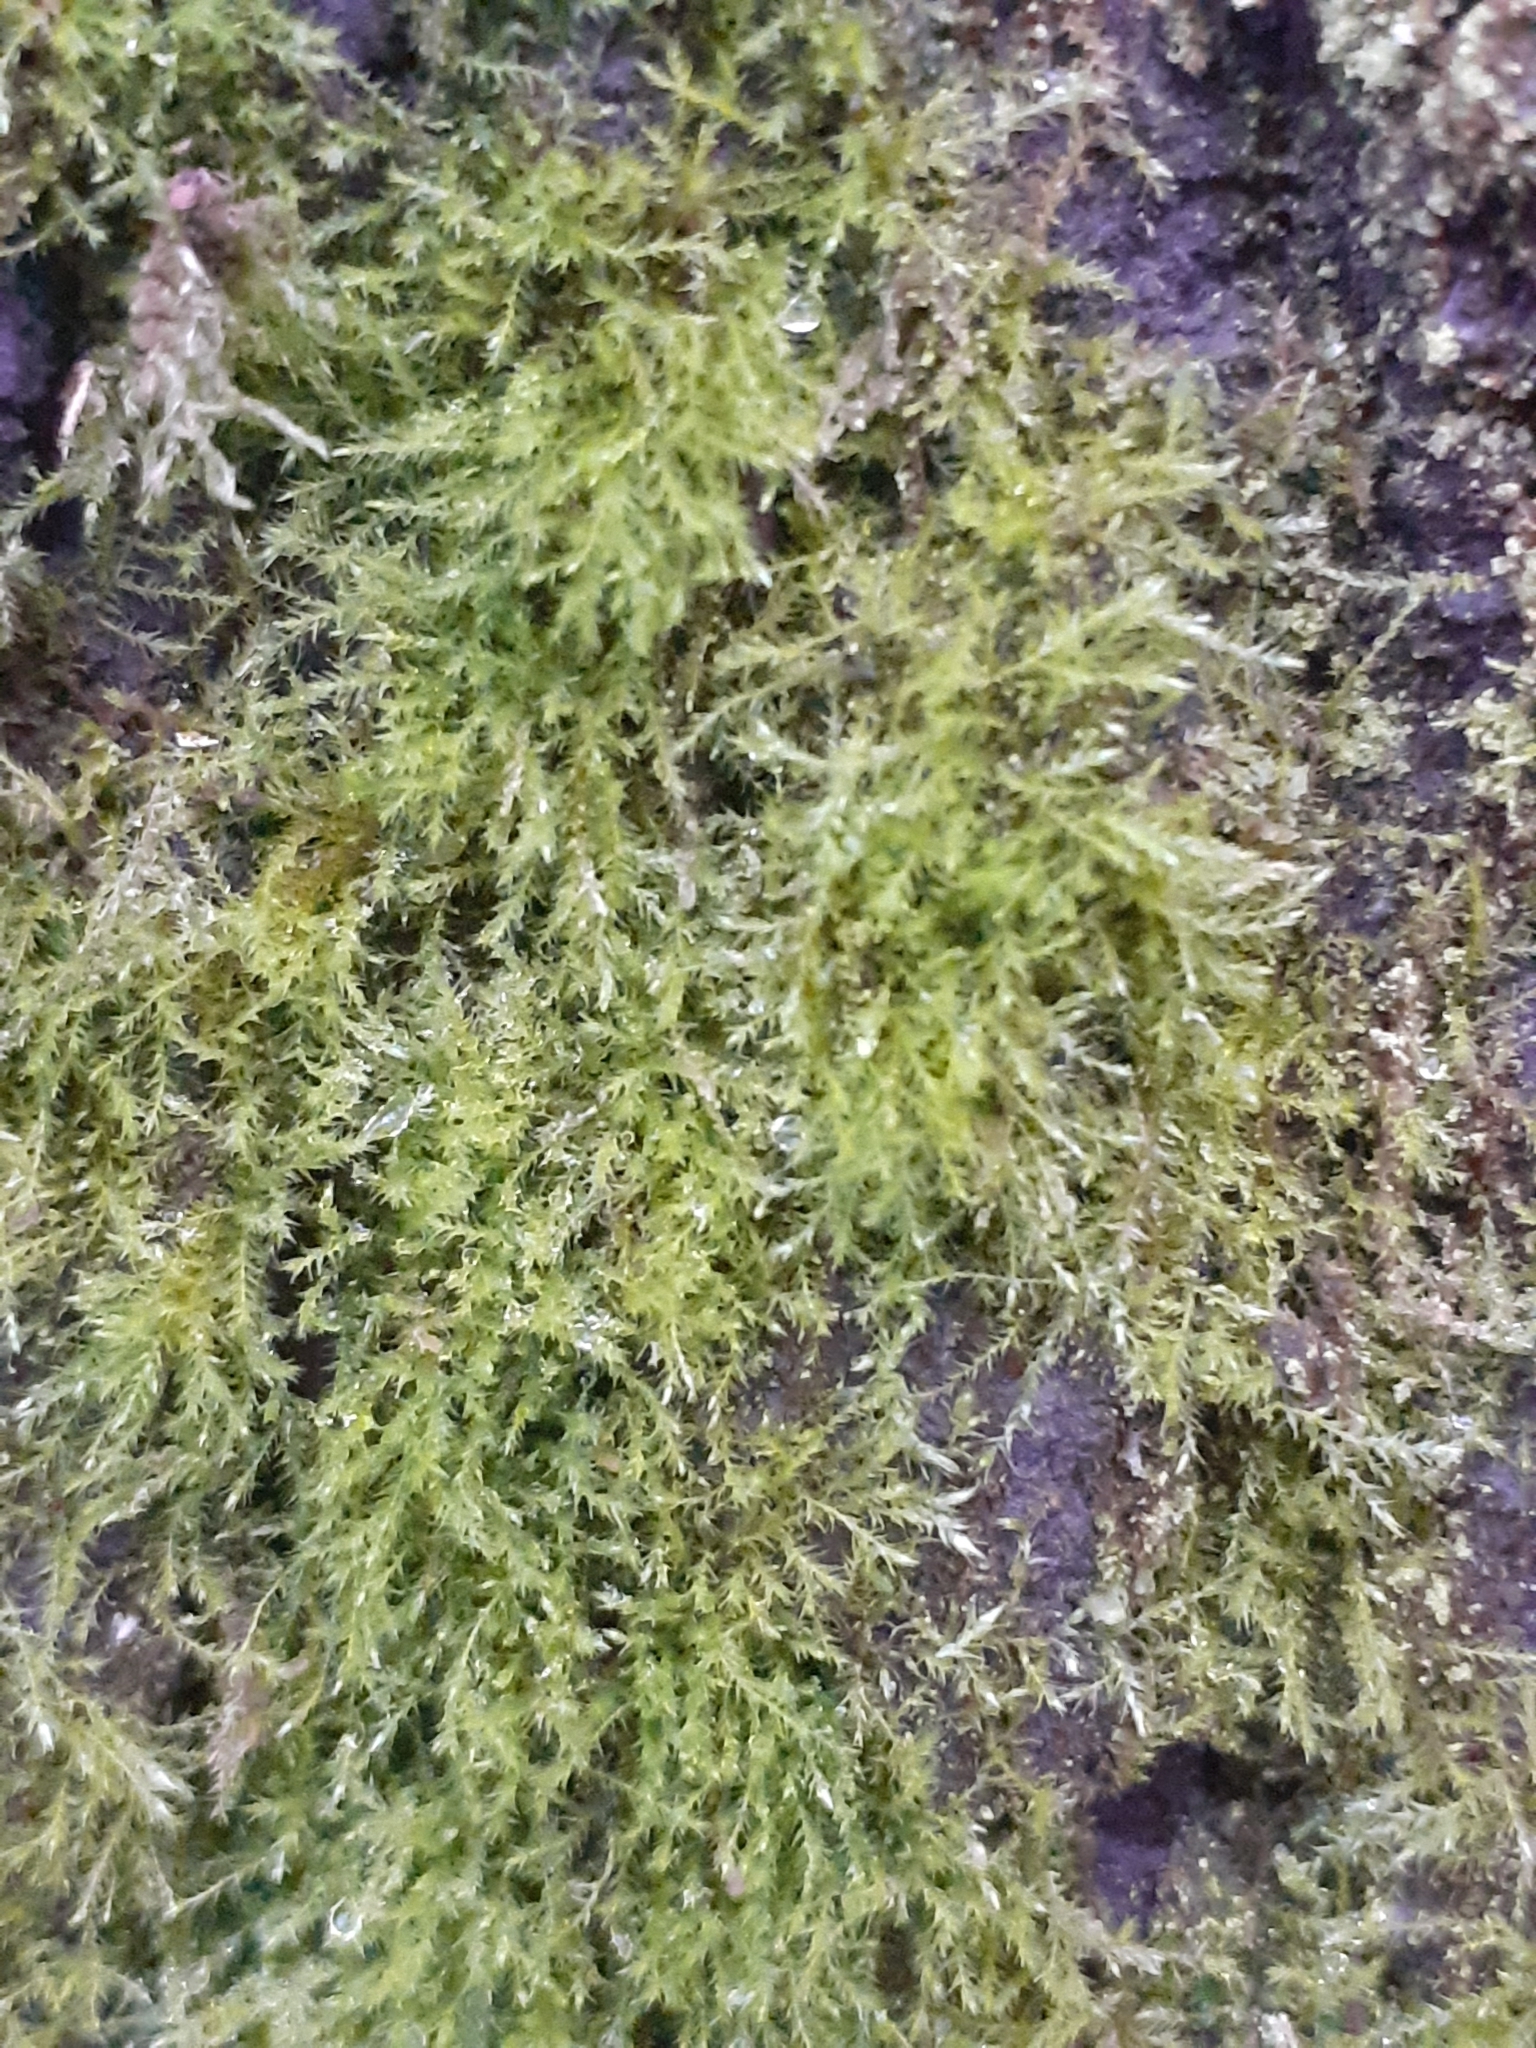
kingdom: Plantae
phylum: Bryophyta
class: Bryopsida
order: Hypnales
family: Amblystegiaceae
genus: Amblystegium
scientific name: Amblystegium serpens
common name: Jurkatzka's feather moss
